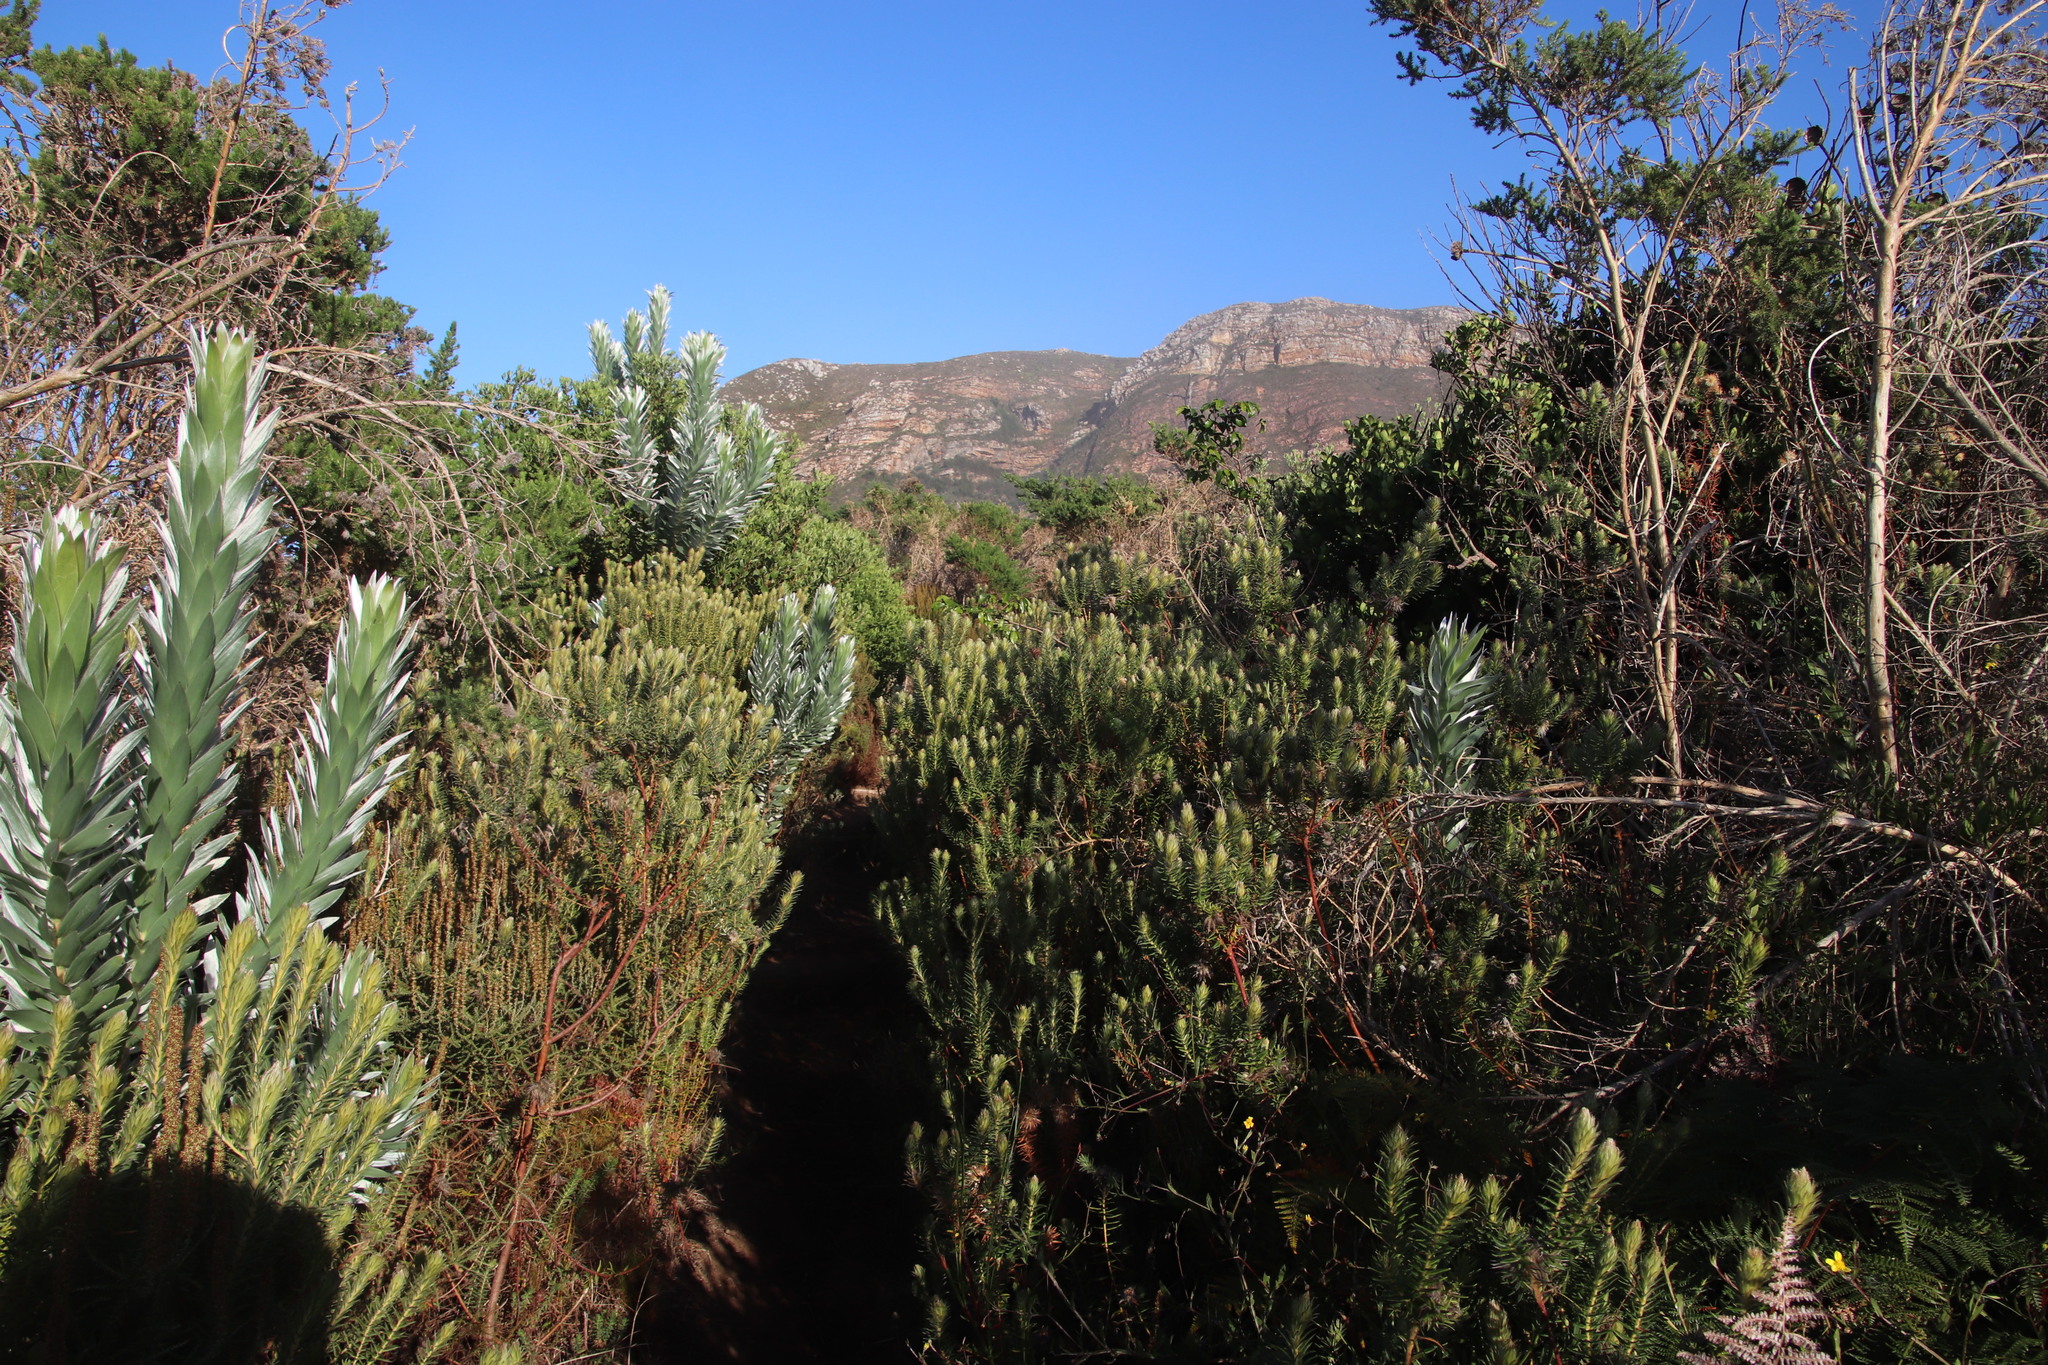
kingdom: Plantae
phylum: Tracheophyta
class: Magnoliopsida
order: Rosales
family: Rhamnaceae
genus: Phylica
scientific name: Phylica pubescens
